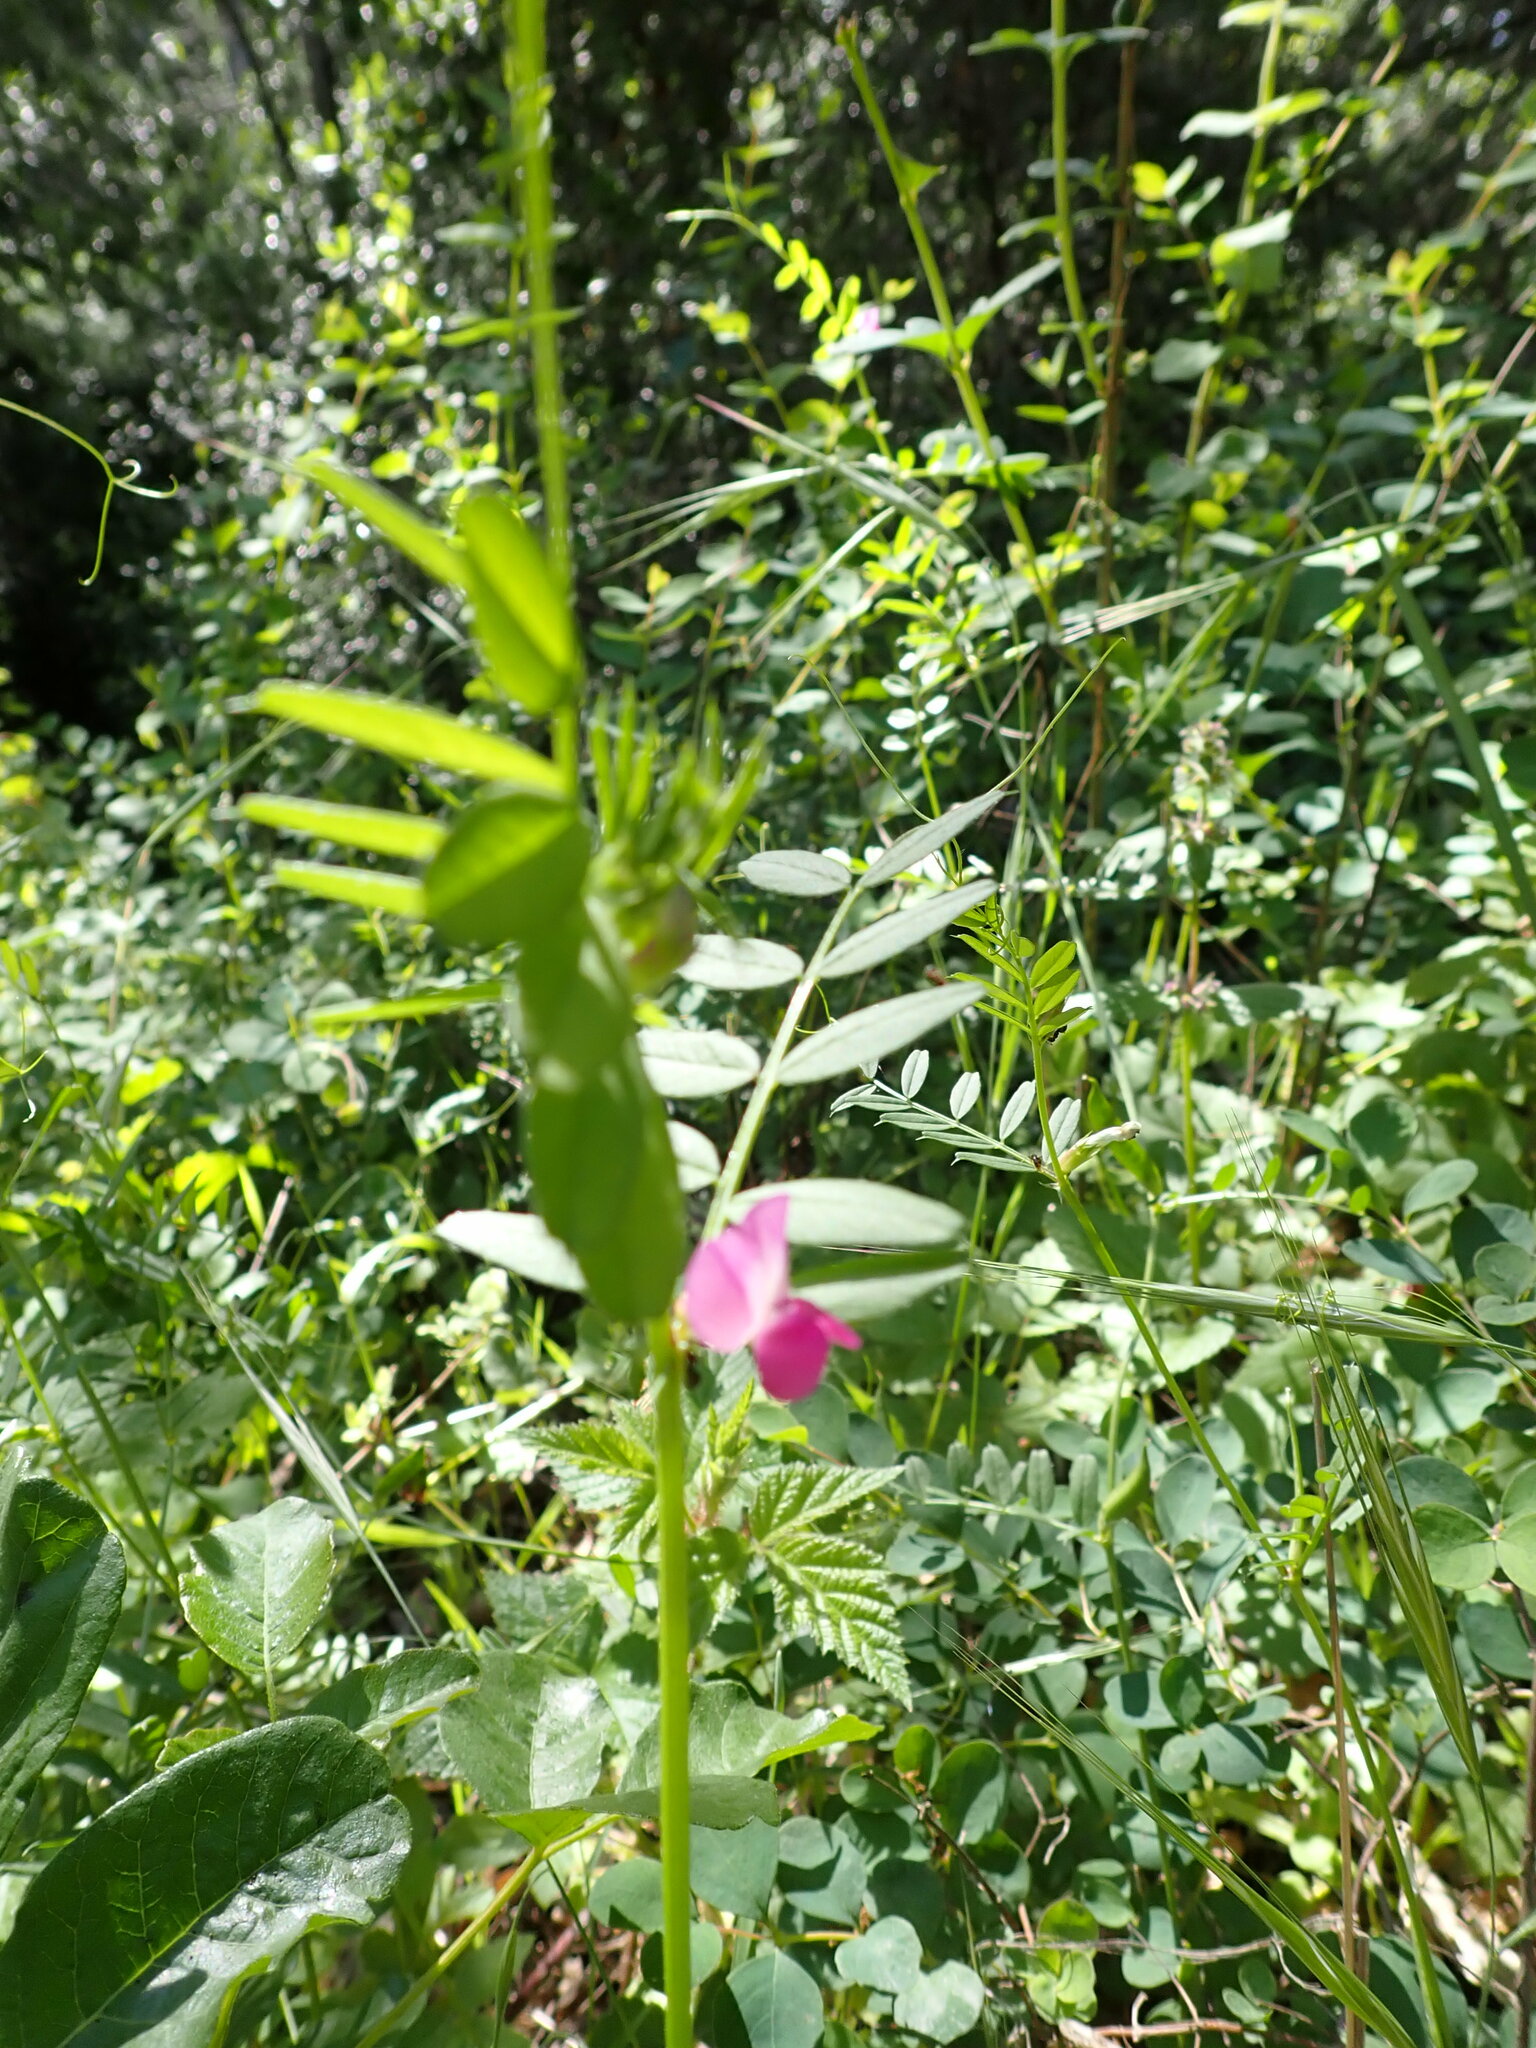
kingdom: Plantae
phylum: Tracheophyta
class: Magnoliopsida
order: Fabales
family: Fabaceae
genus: Vicia
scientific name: Vicia sativa
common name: Garden vetch
